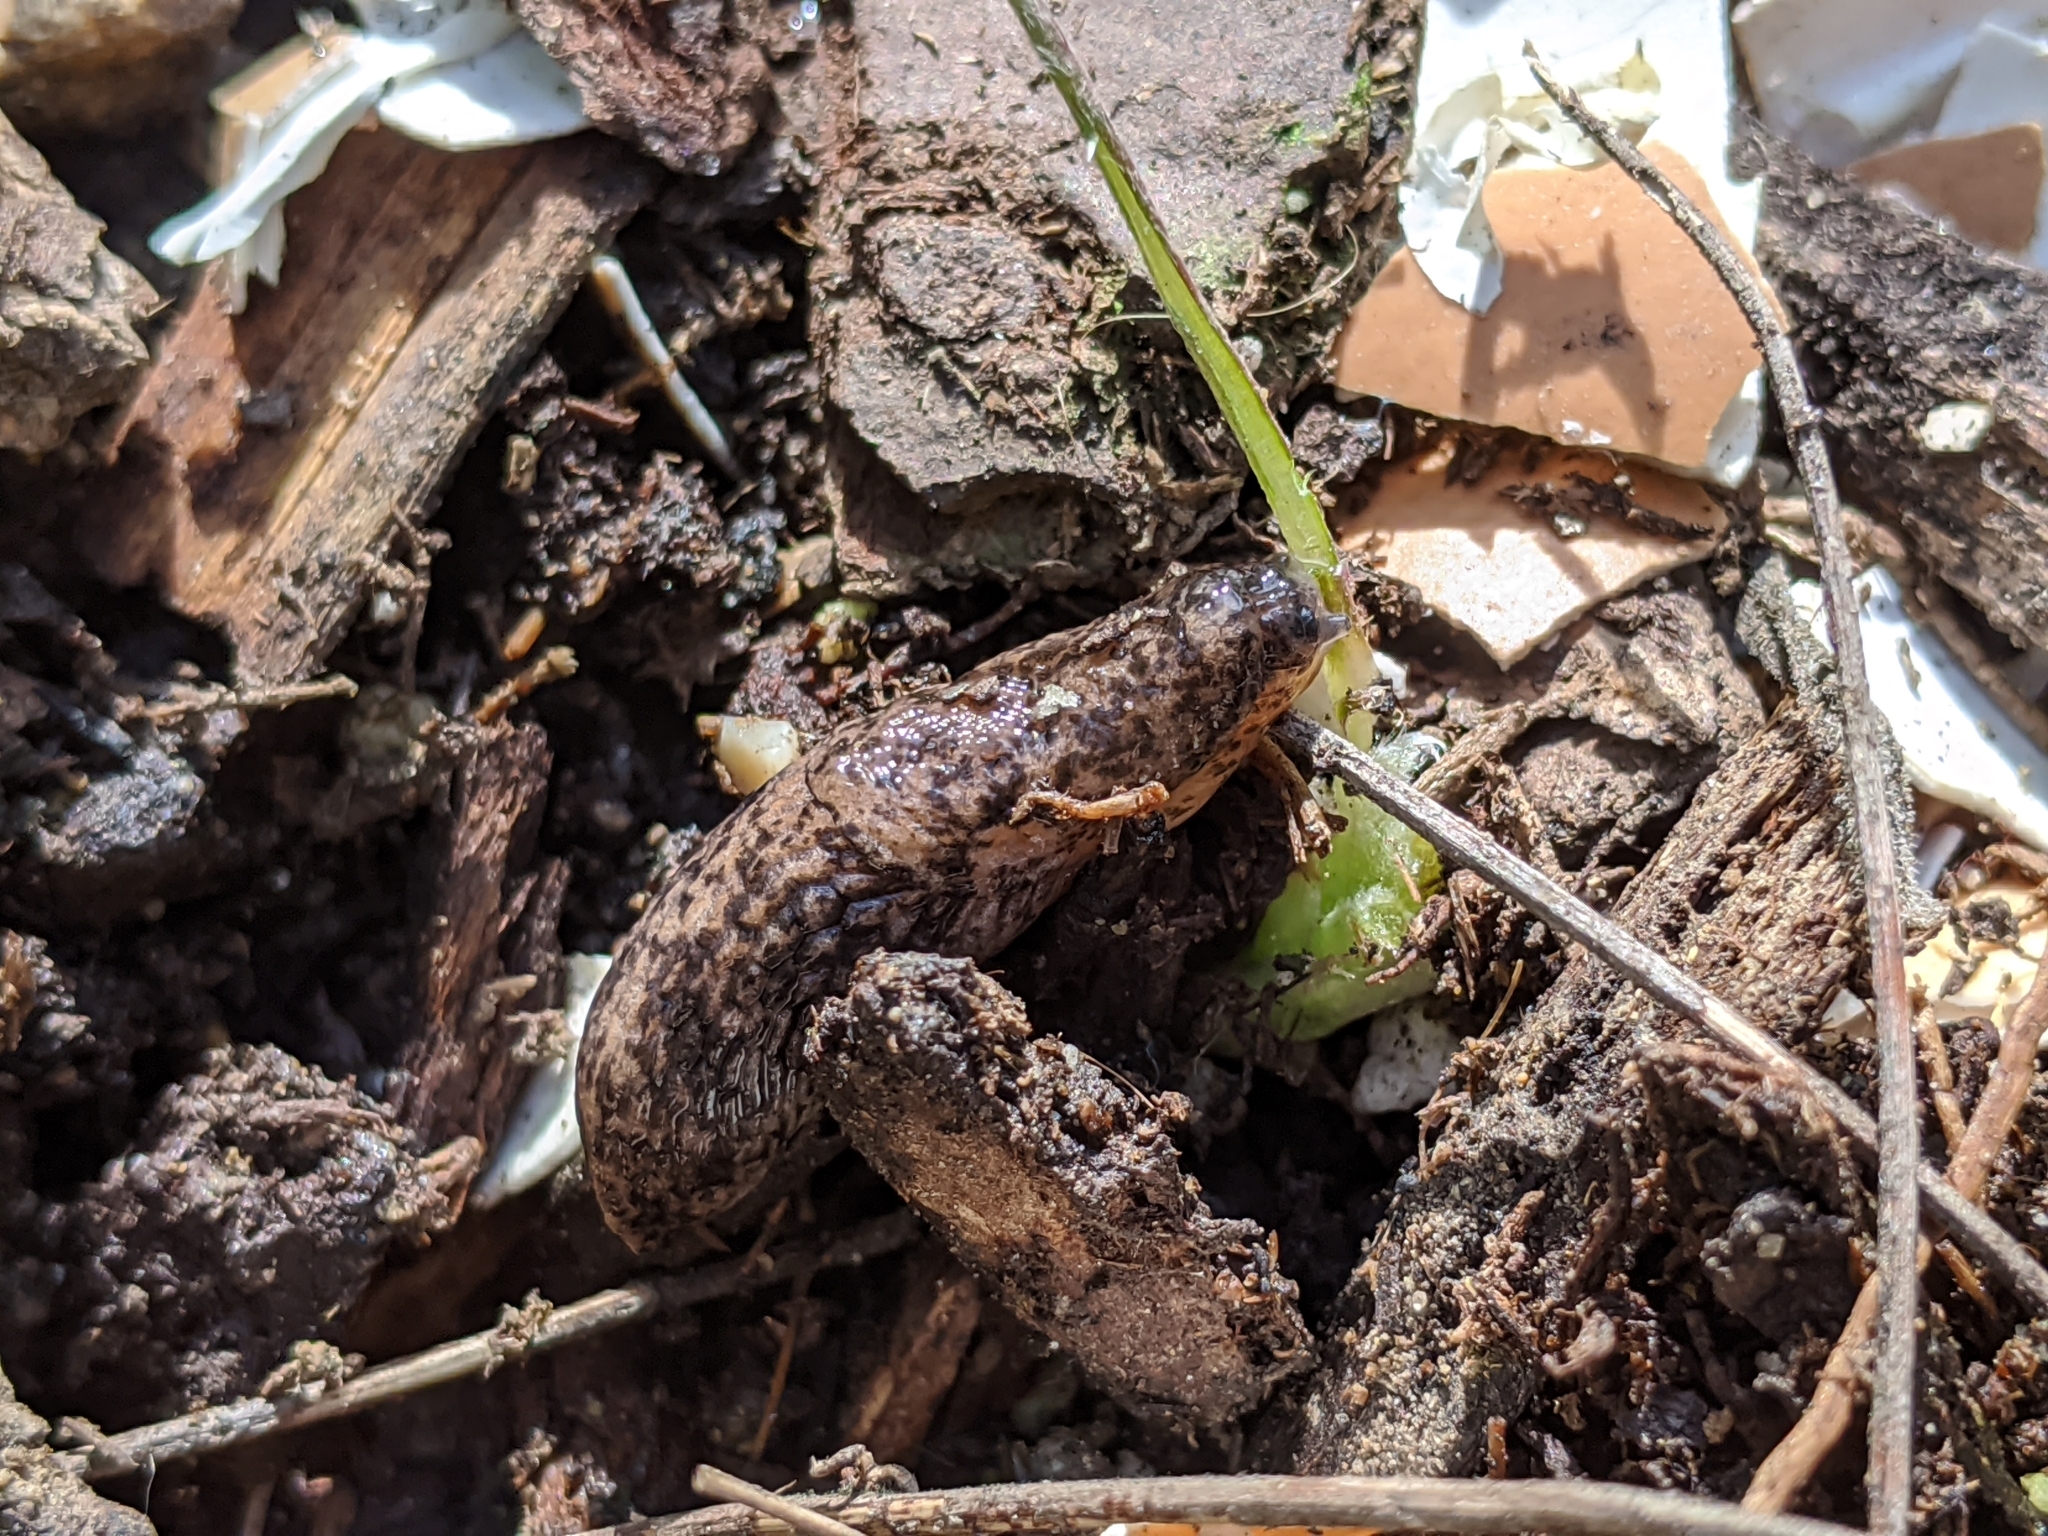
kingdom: Animalia
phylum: Mollusca
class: Gastropoda
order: Stylommatophora
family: Agriolimacidae
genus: Deroceras
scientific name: Deroceras reticulatum
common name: Gray field slug
